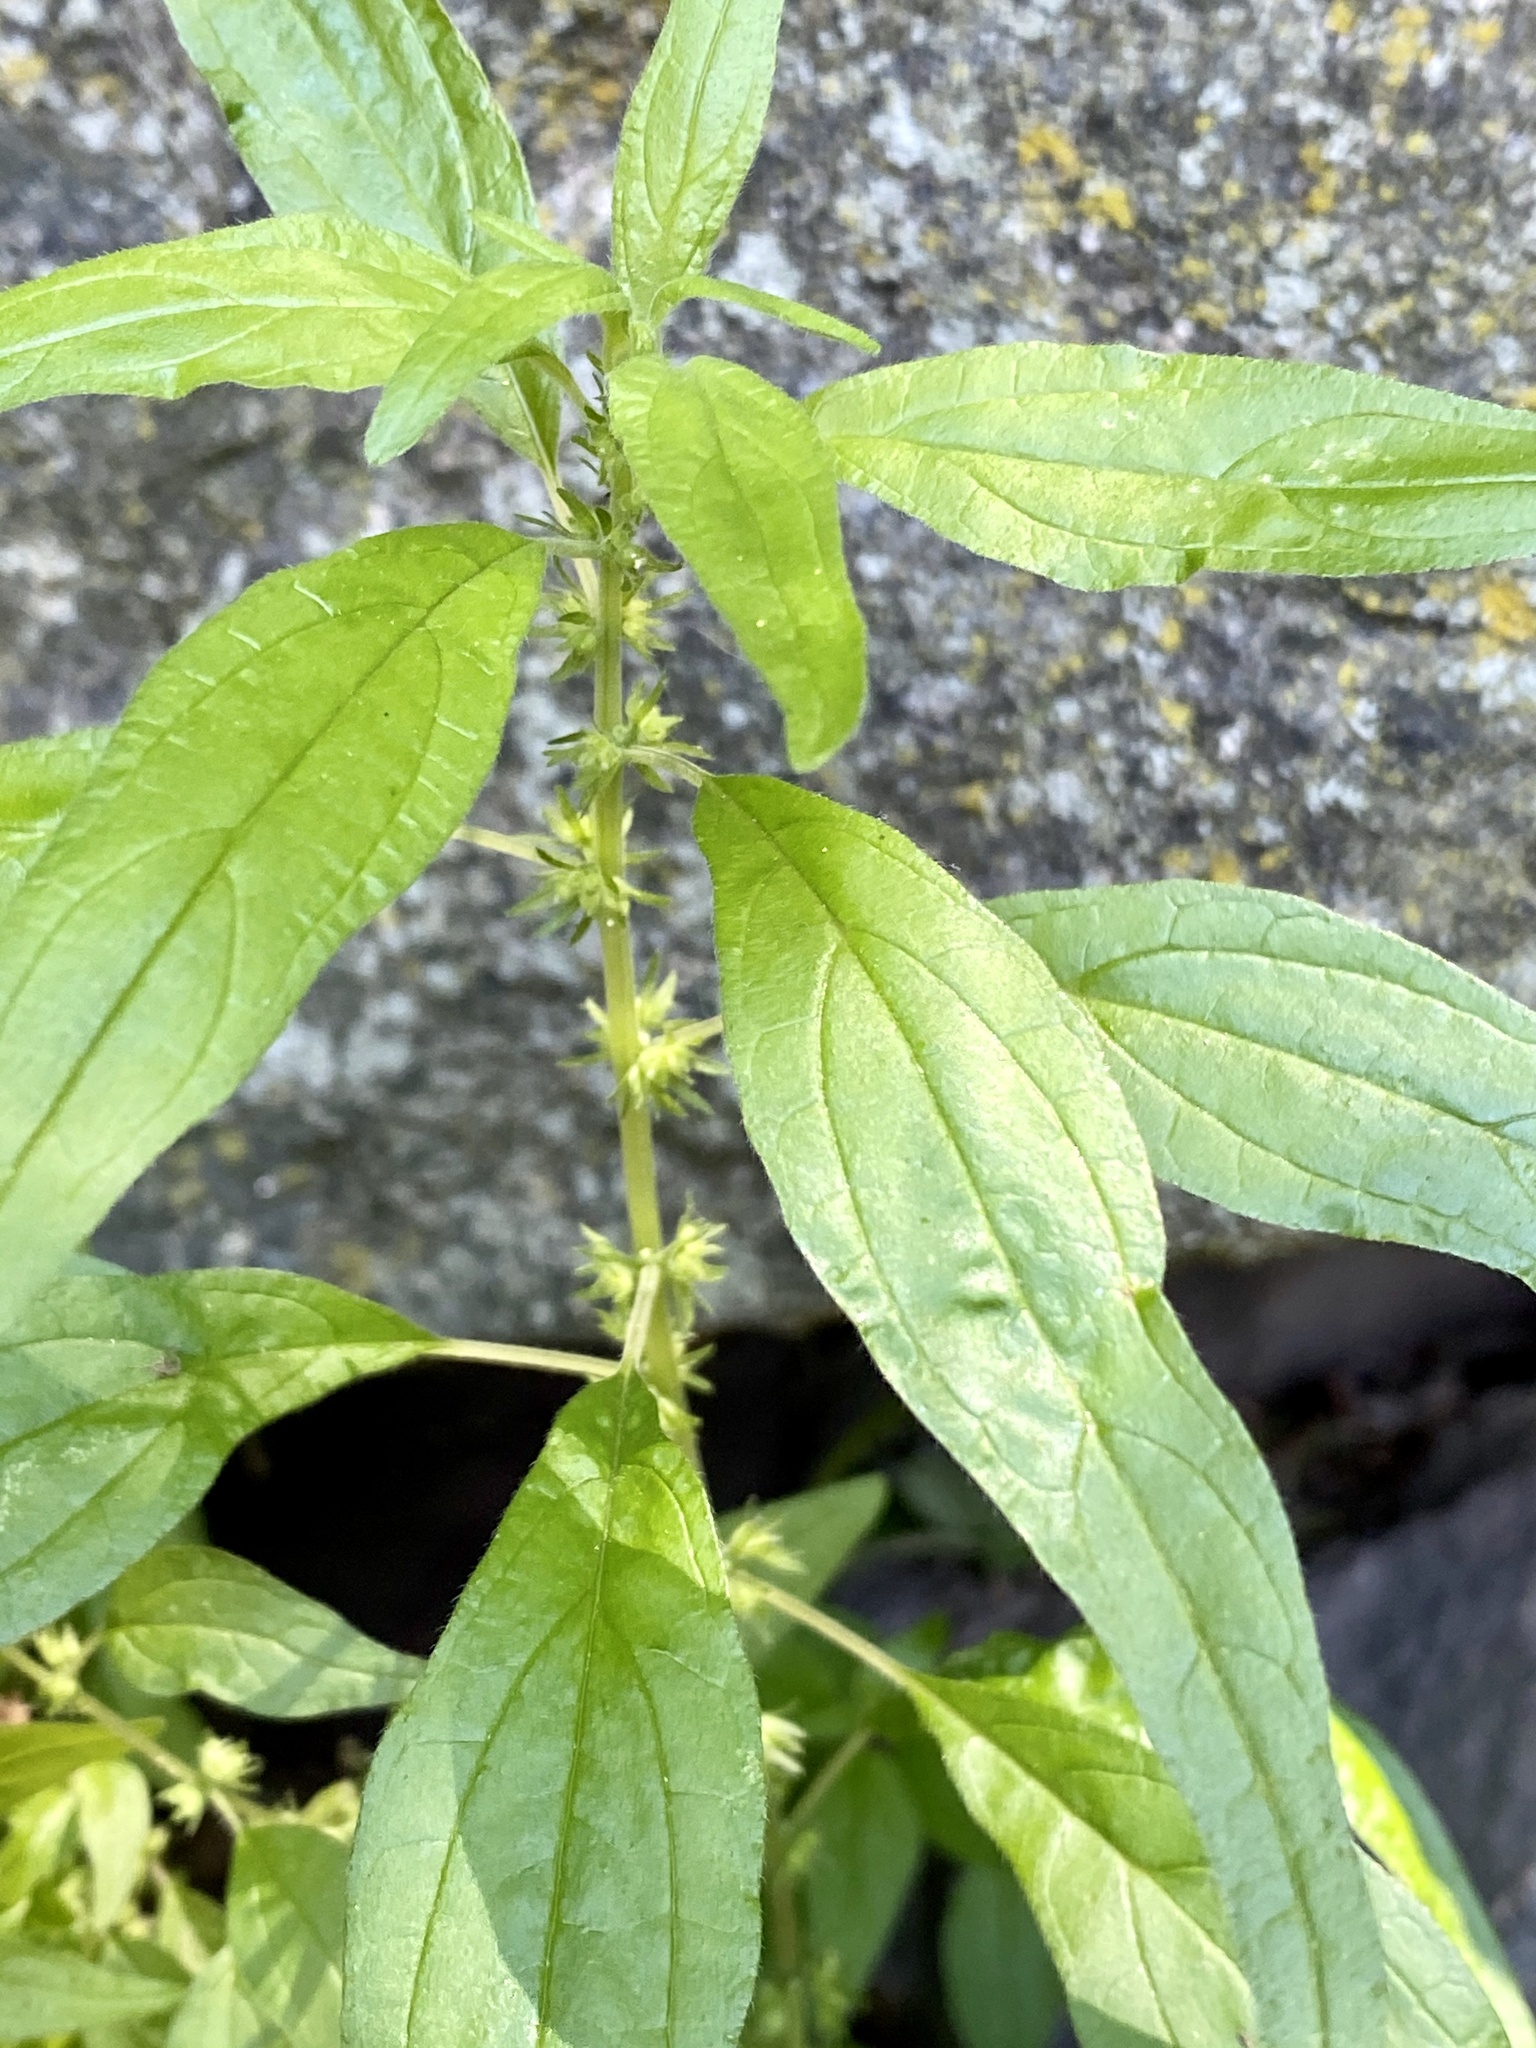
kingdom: Plantae
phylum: Tracheophyta
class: Magnoliopsida
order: Rosales
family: Urticaceae
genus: Parietaria
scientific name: Parietaria pensylvanica
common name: Pennsylvania pellitory
